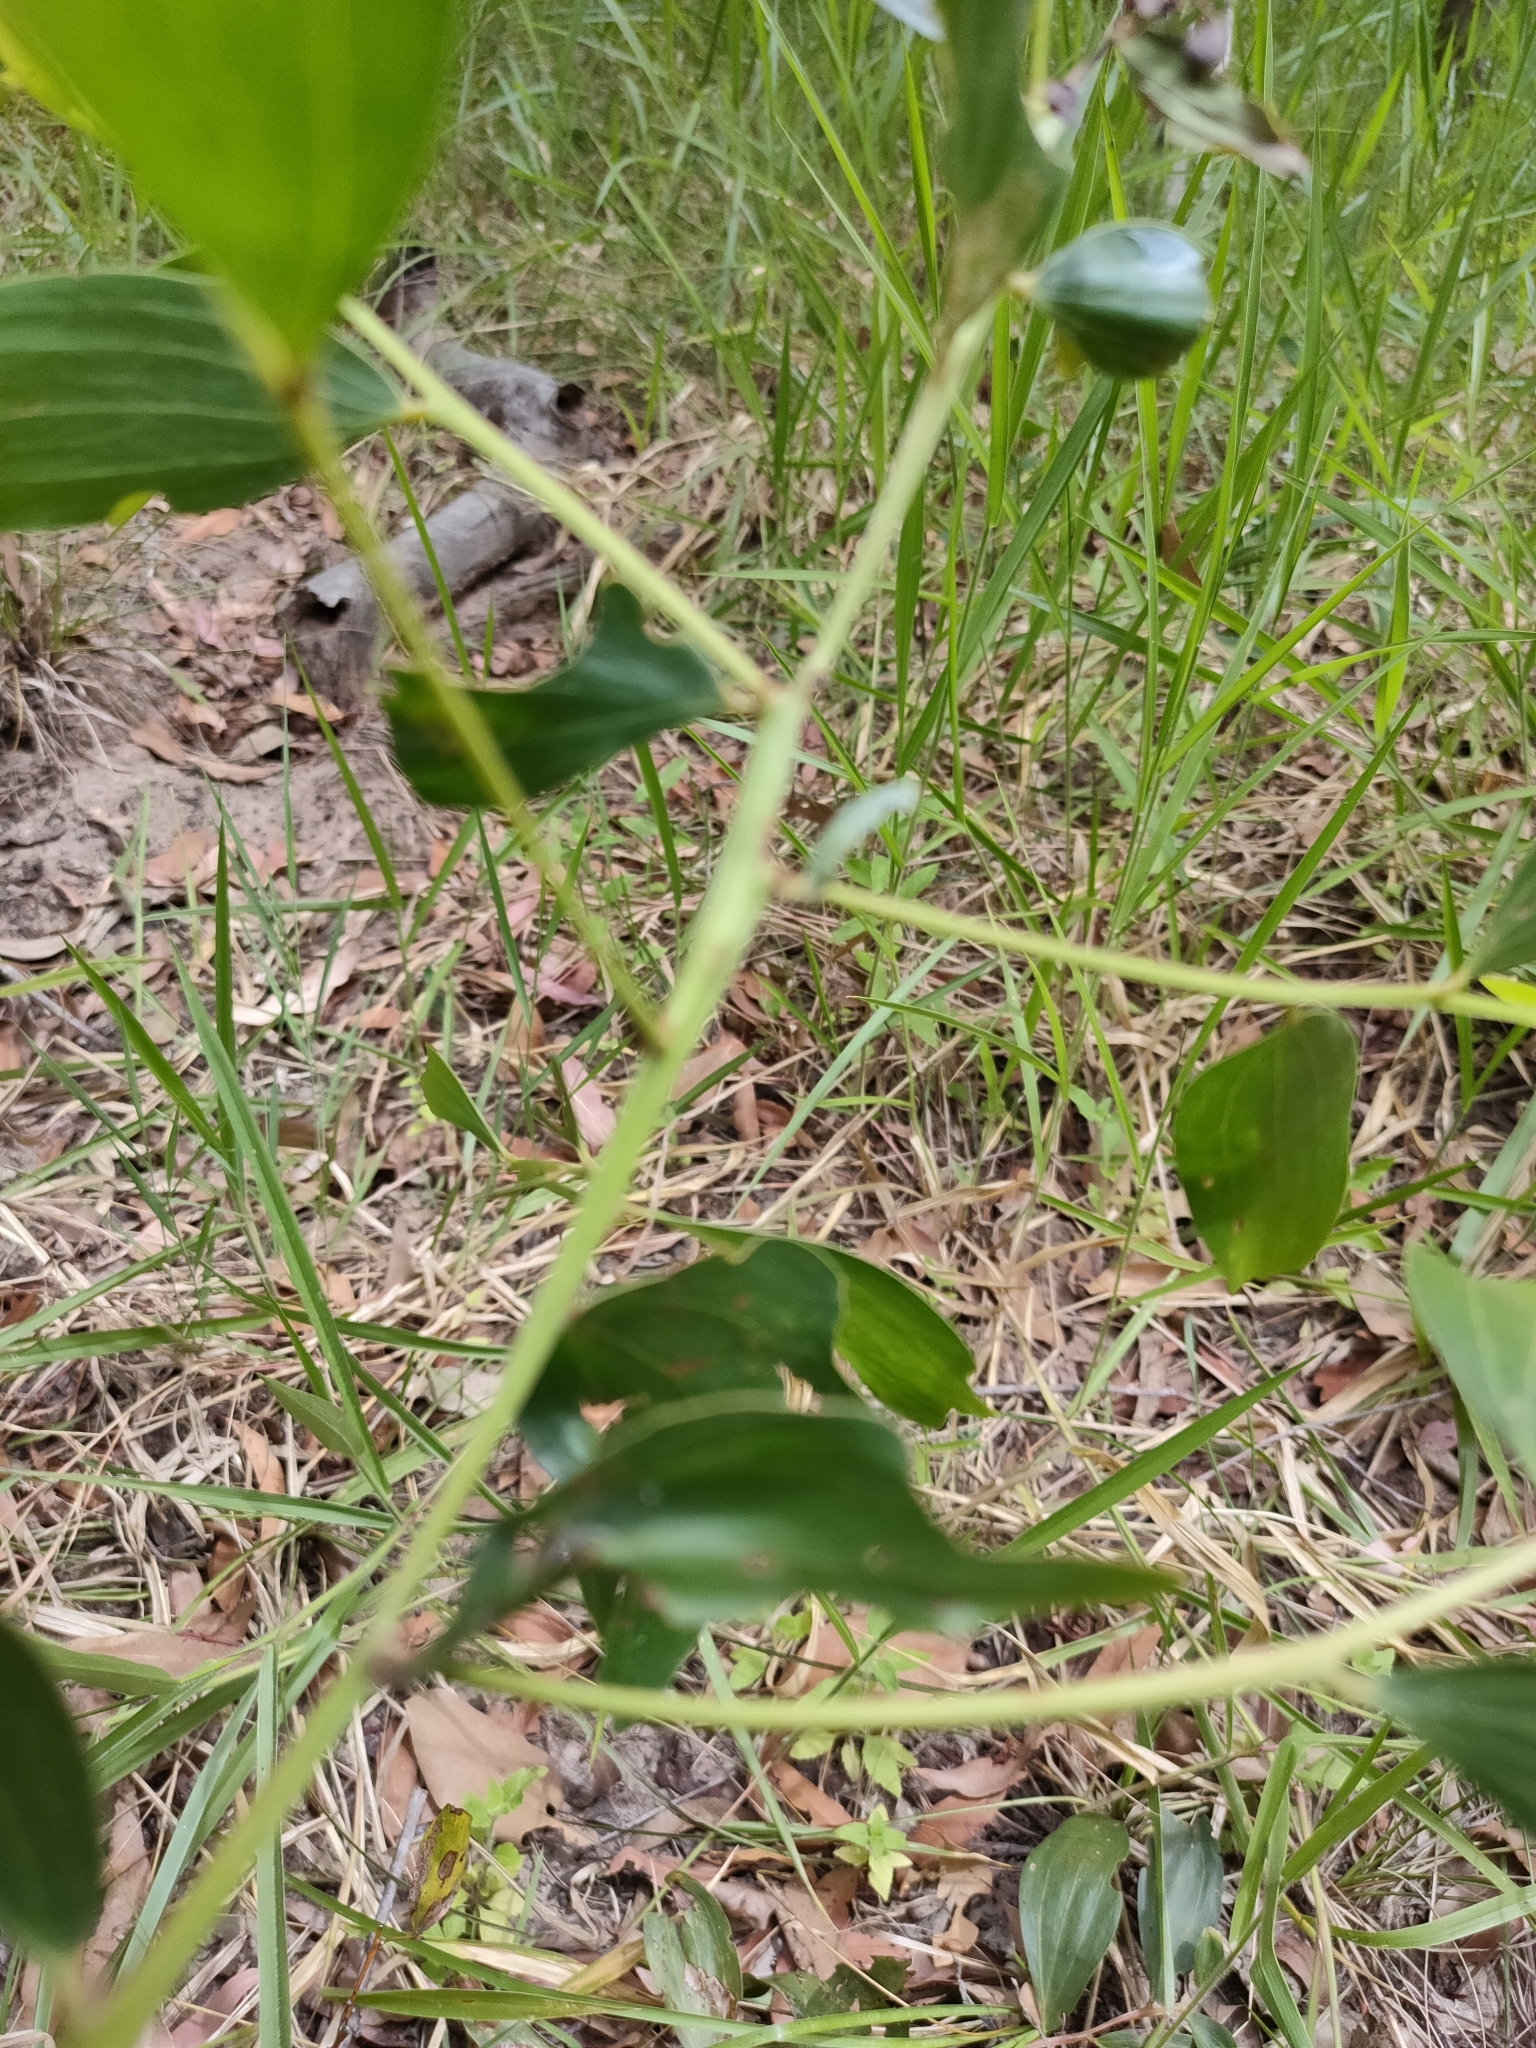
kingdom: Plantae
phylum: Tracheophyta
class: Magnoliopsida
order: Fabales
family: Fabaceae
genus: Acacia
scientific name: Acacia leiocalyx
